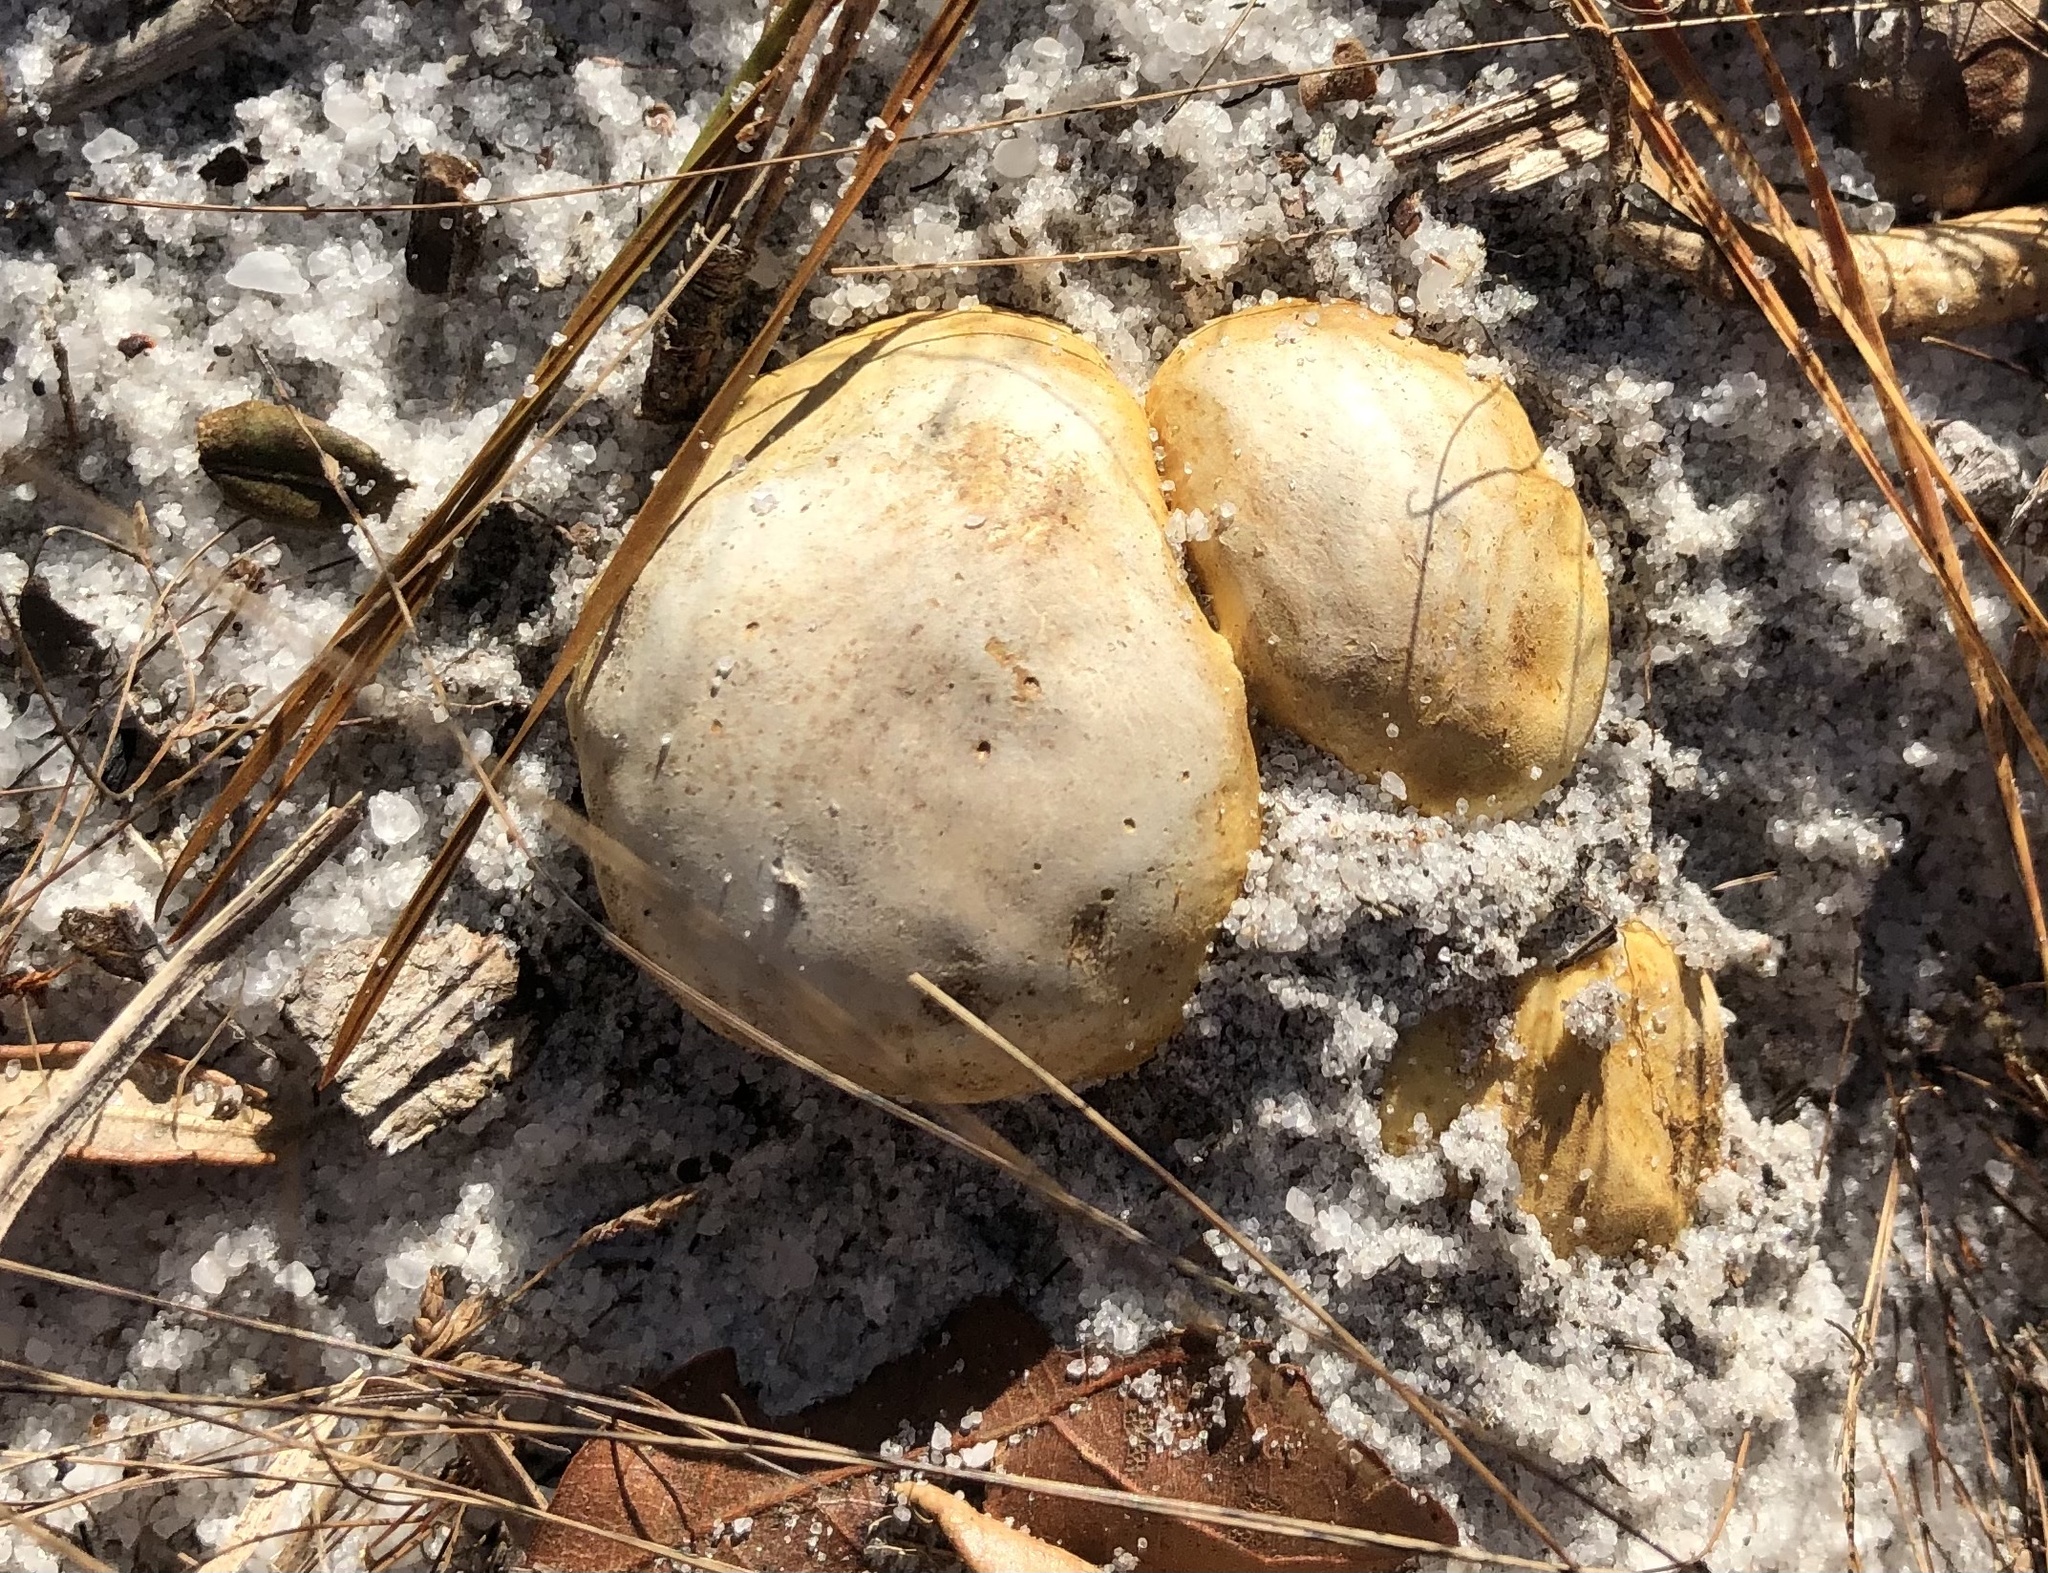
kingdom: Fungi
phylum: Basidiomycota
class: Agaricomycetes
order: Boletales
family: Sclerodermataceae
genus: Scleroderma
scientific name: Scleroderma cepa
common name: Onion earthball
